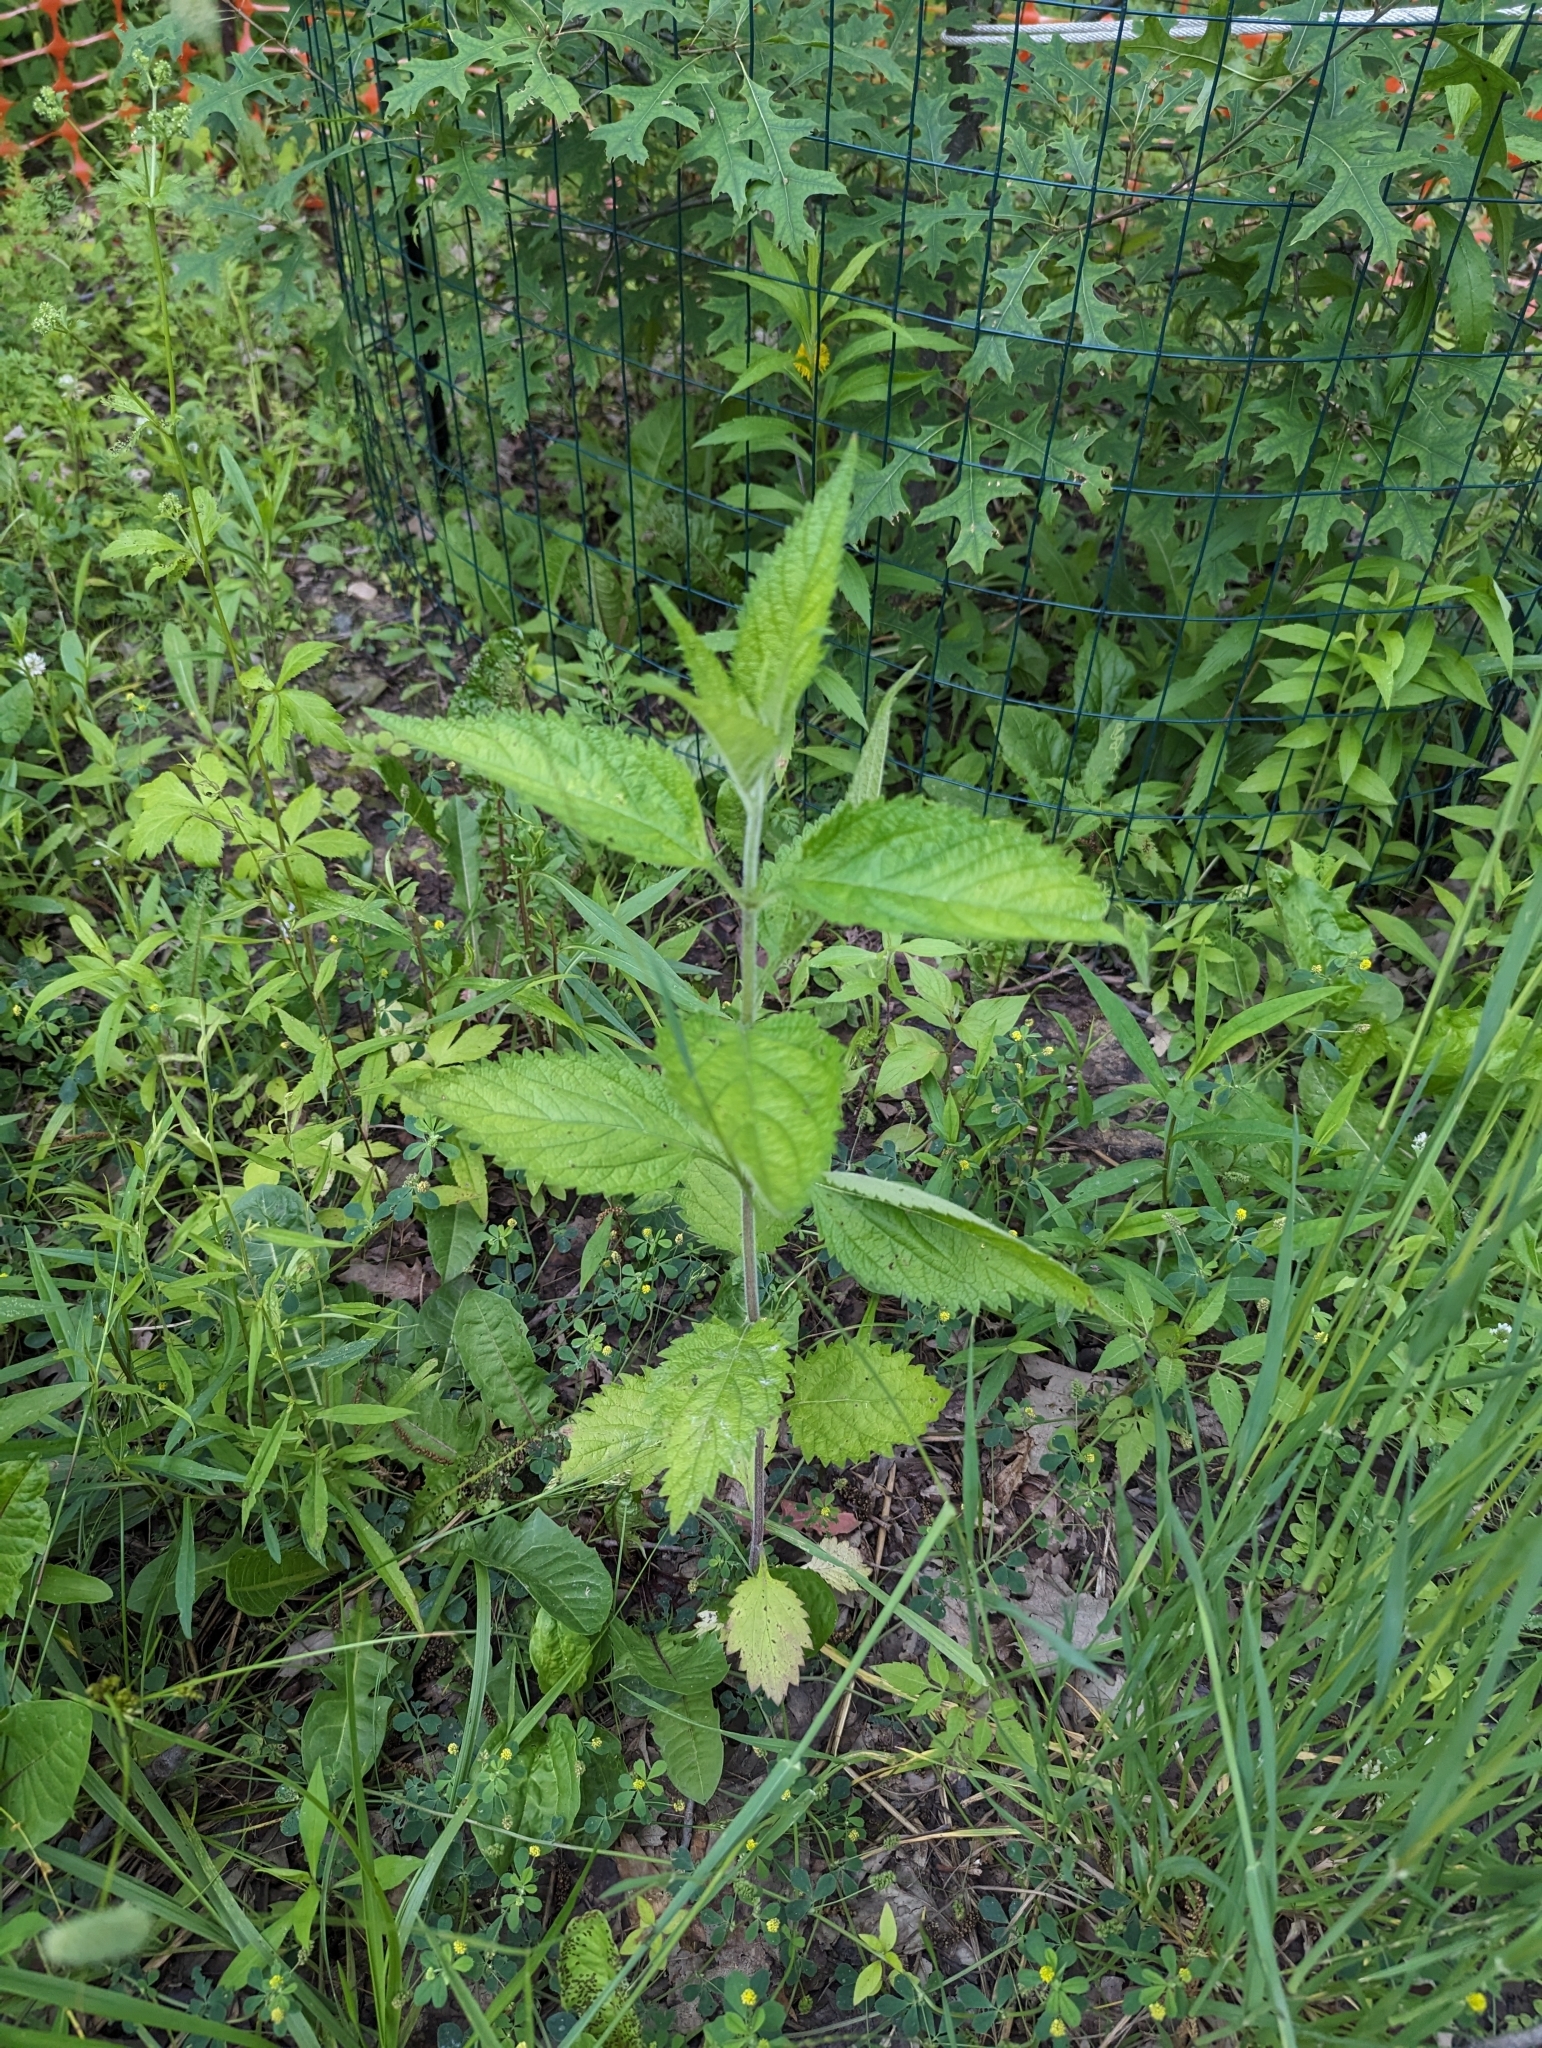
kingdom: Plantae
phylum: Tracheophyta
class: Magnoliopsida
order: Lamiales
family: Verbenaceae
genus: Verbena
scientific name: Verbena urticifolia
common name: Nettle-leaved vervain
